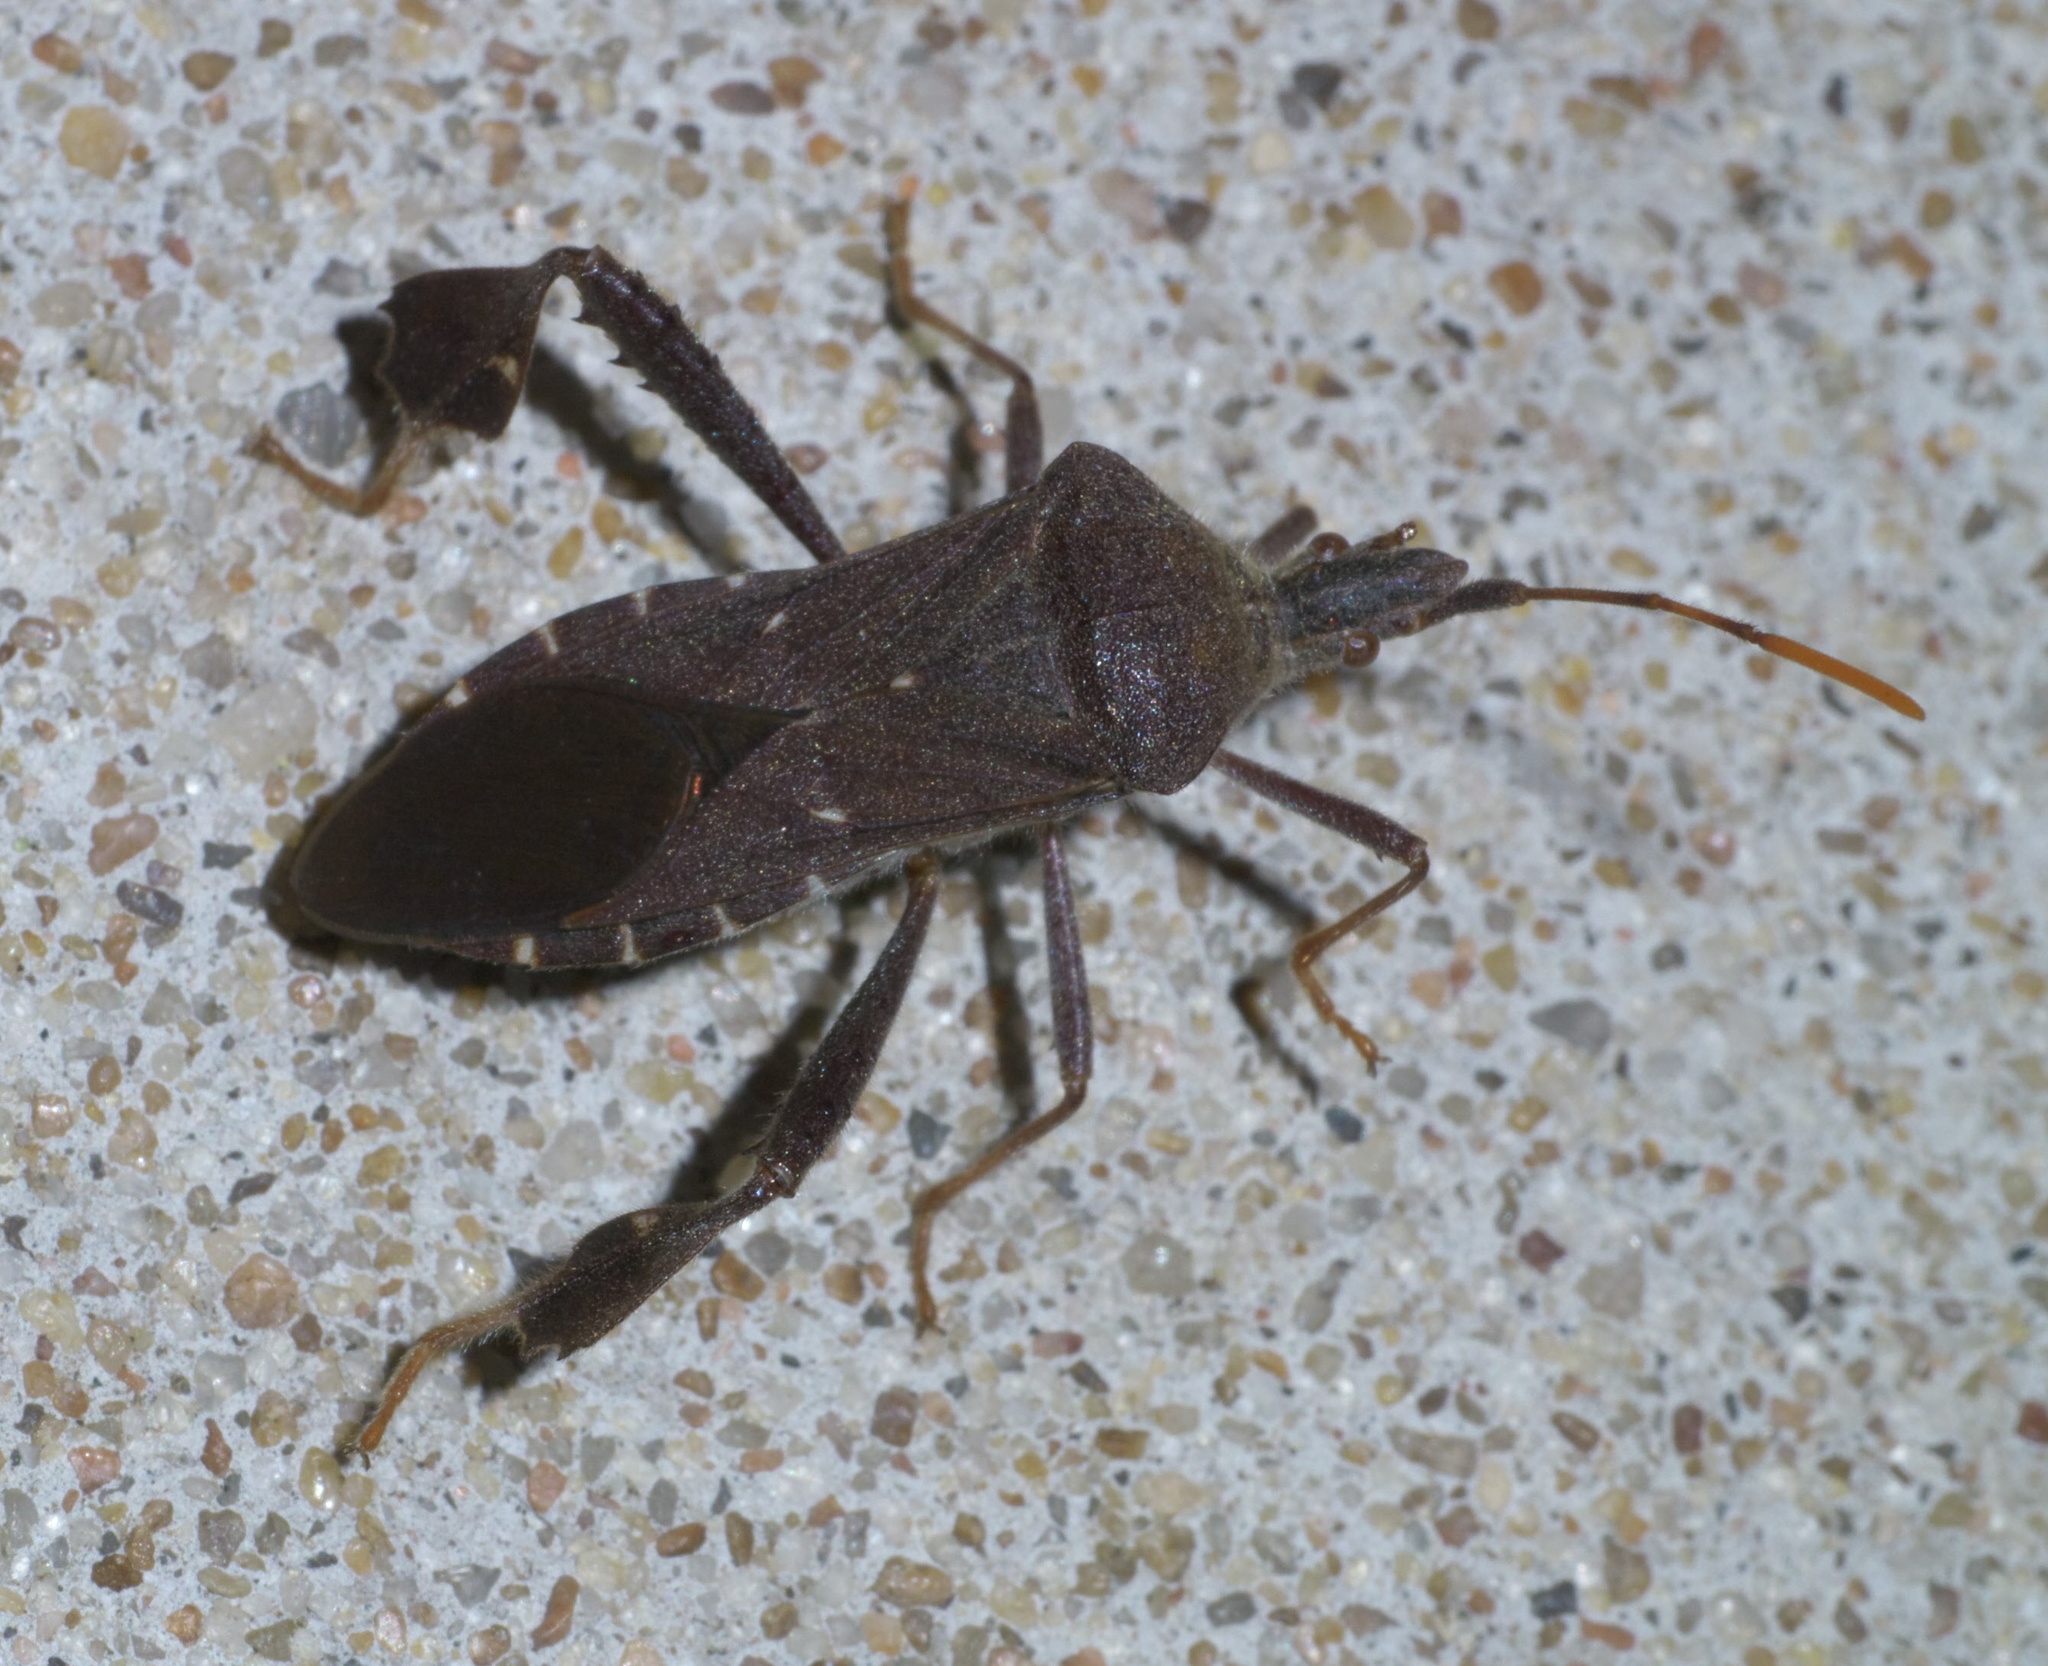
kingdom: Animalia
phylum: Arthropoda
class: Insecta
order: Hemiptera
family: Coreidae
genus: Leptoglossus
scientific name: Leptoglossus oppositus
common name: Northern leaf-footed bug
